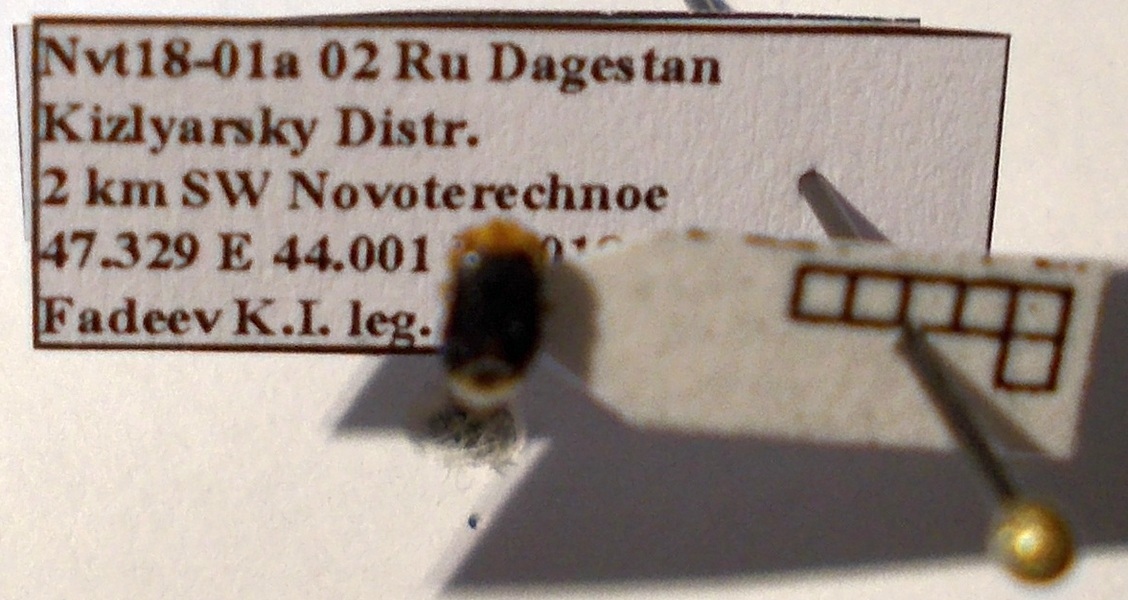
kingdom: Animalia
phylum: Arthropoda
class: Insecta
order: Hemiptera
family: Geocoridae
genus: Geocoris
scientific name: Geocoris erythrocephala
